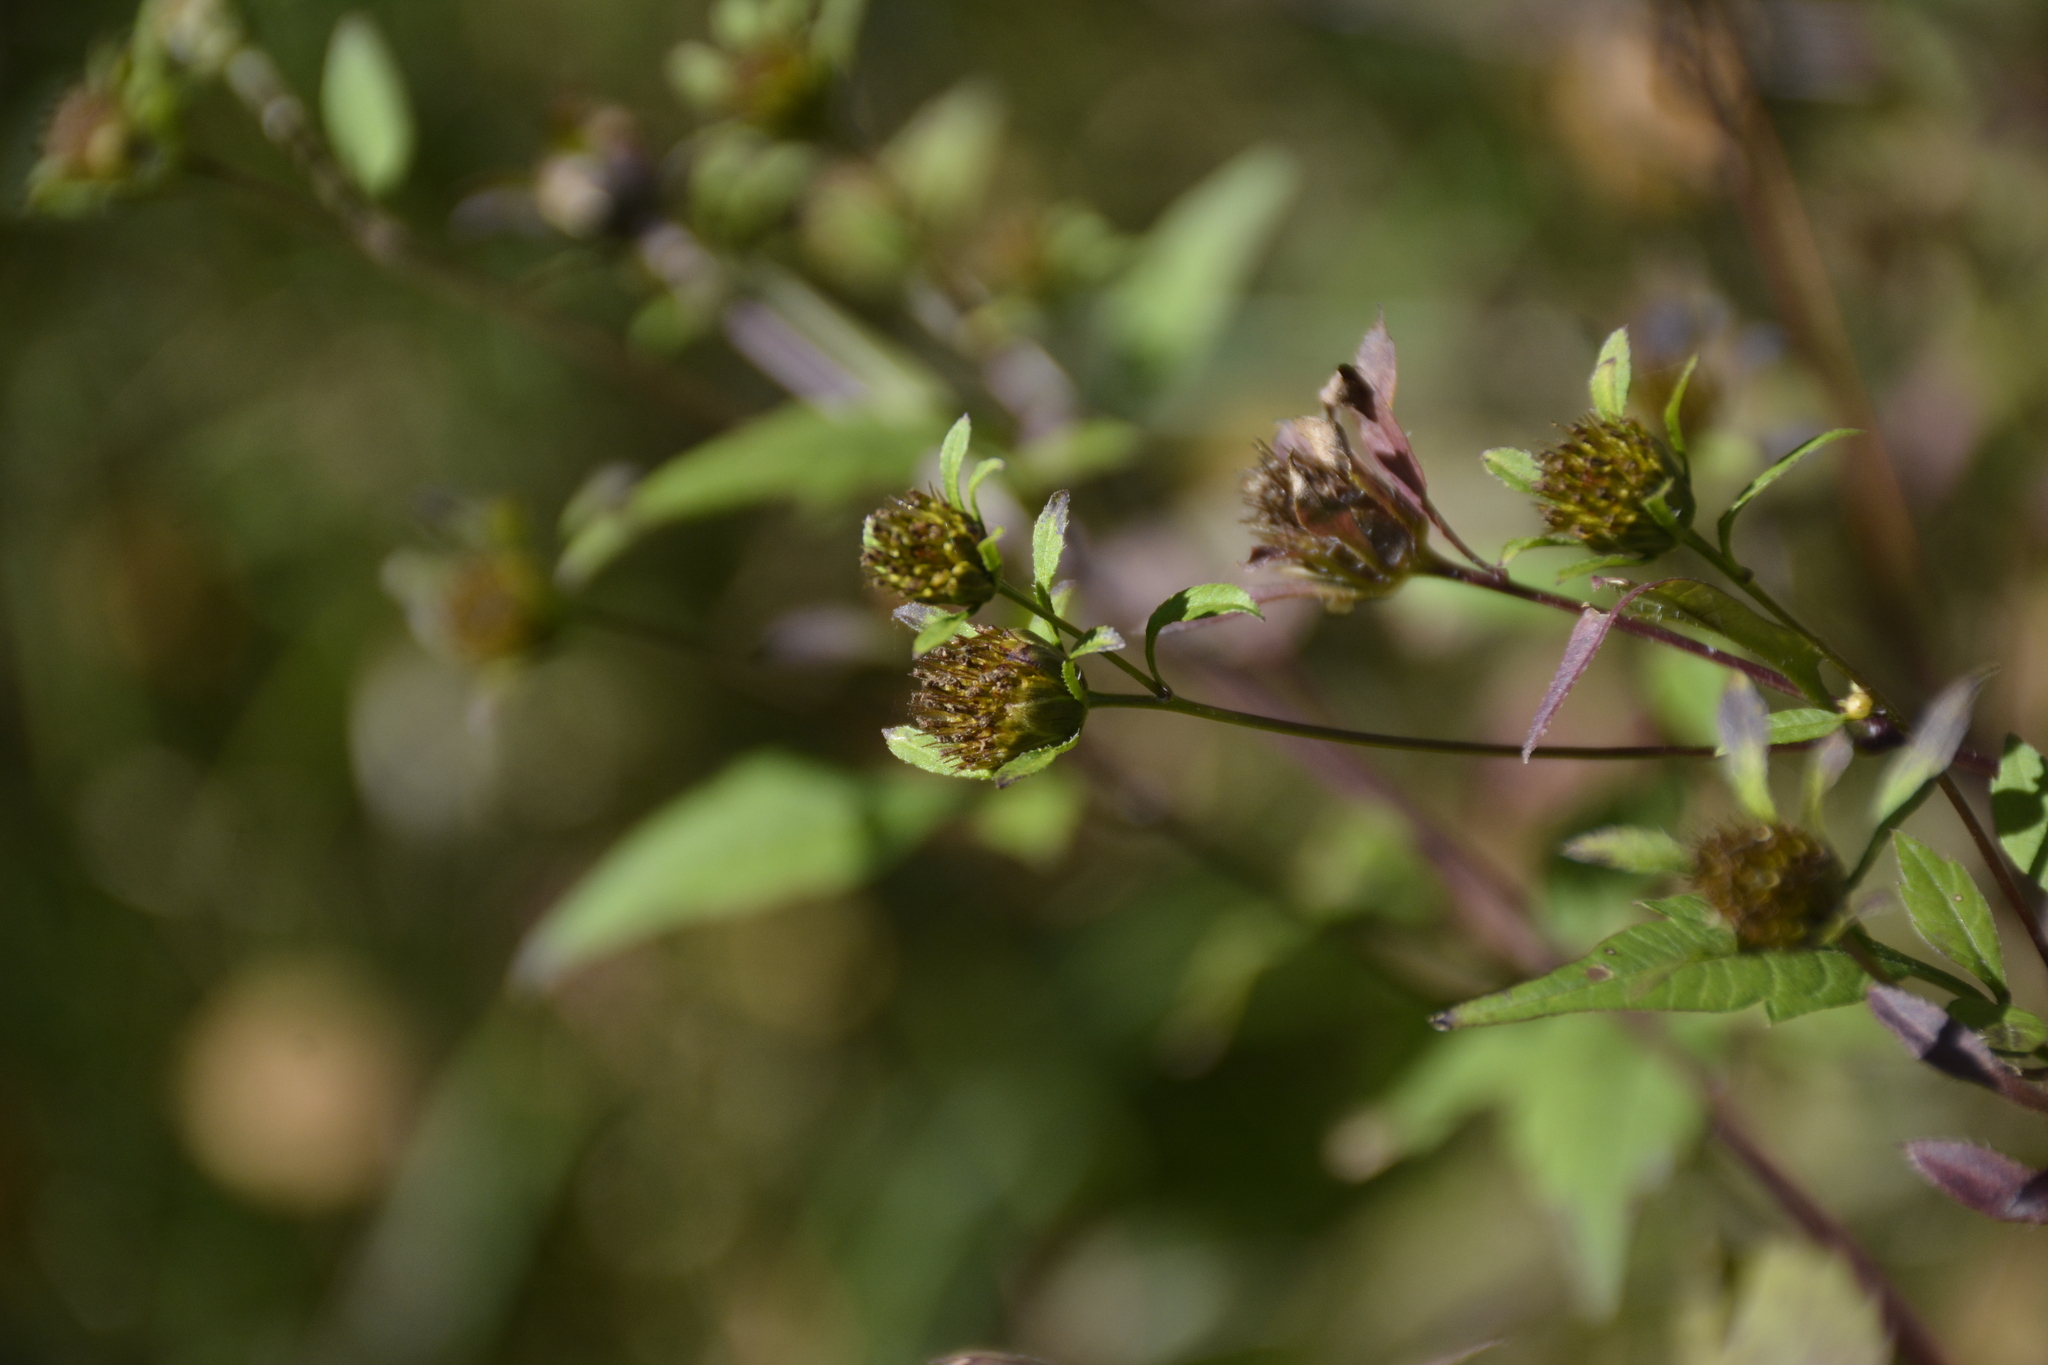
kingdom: Plantae
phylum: Tracheophyta
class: Magnoliopsida
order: Asterales
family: Asteraceae
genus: Bidens
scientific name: Bidens frondosa
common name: Beggarticks
